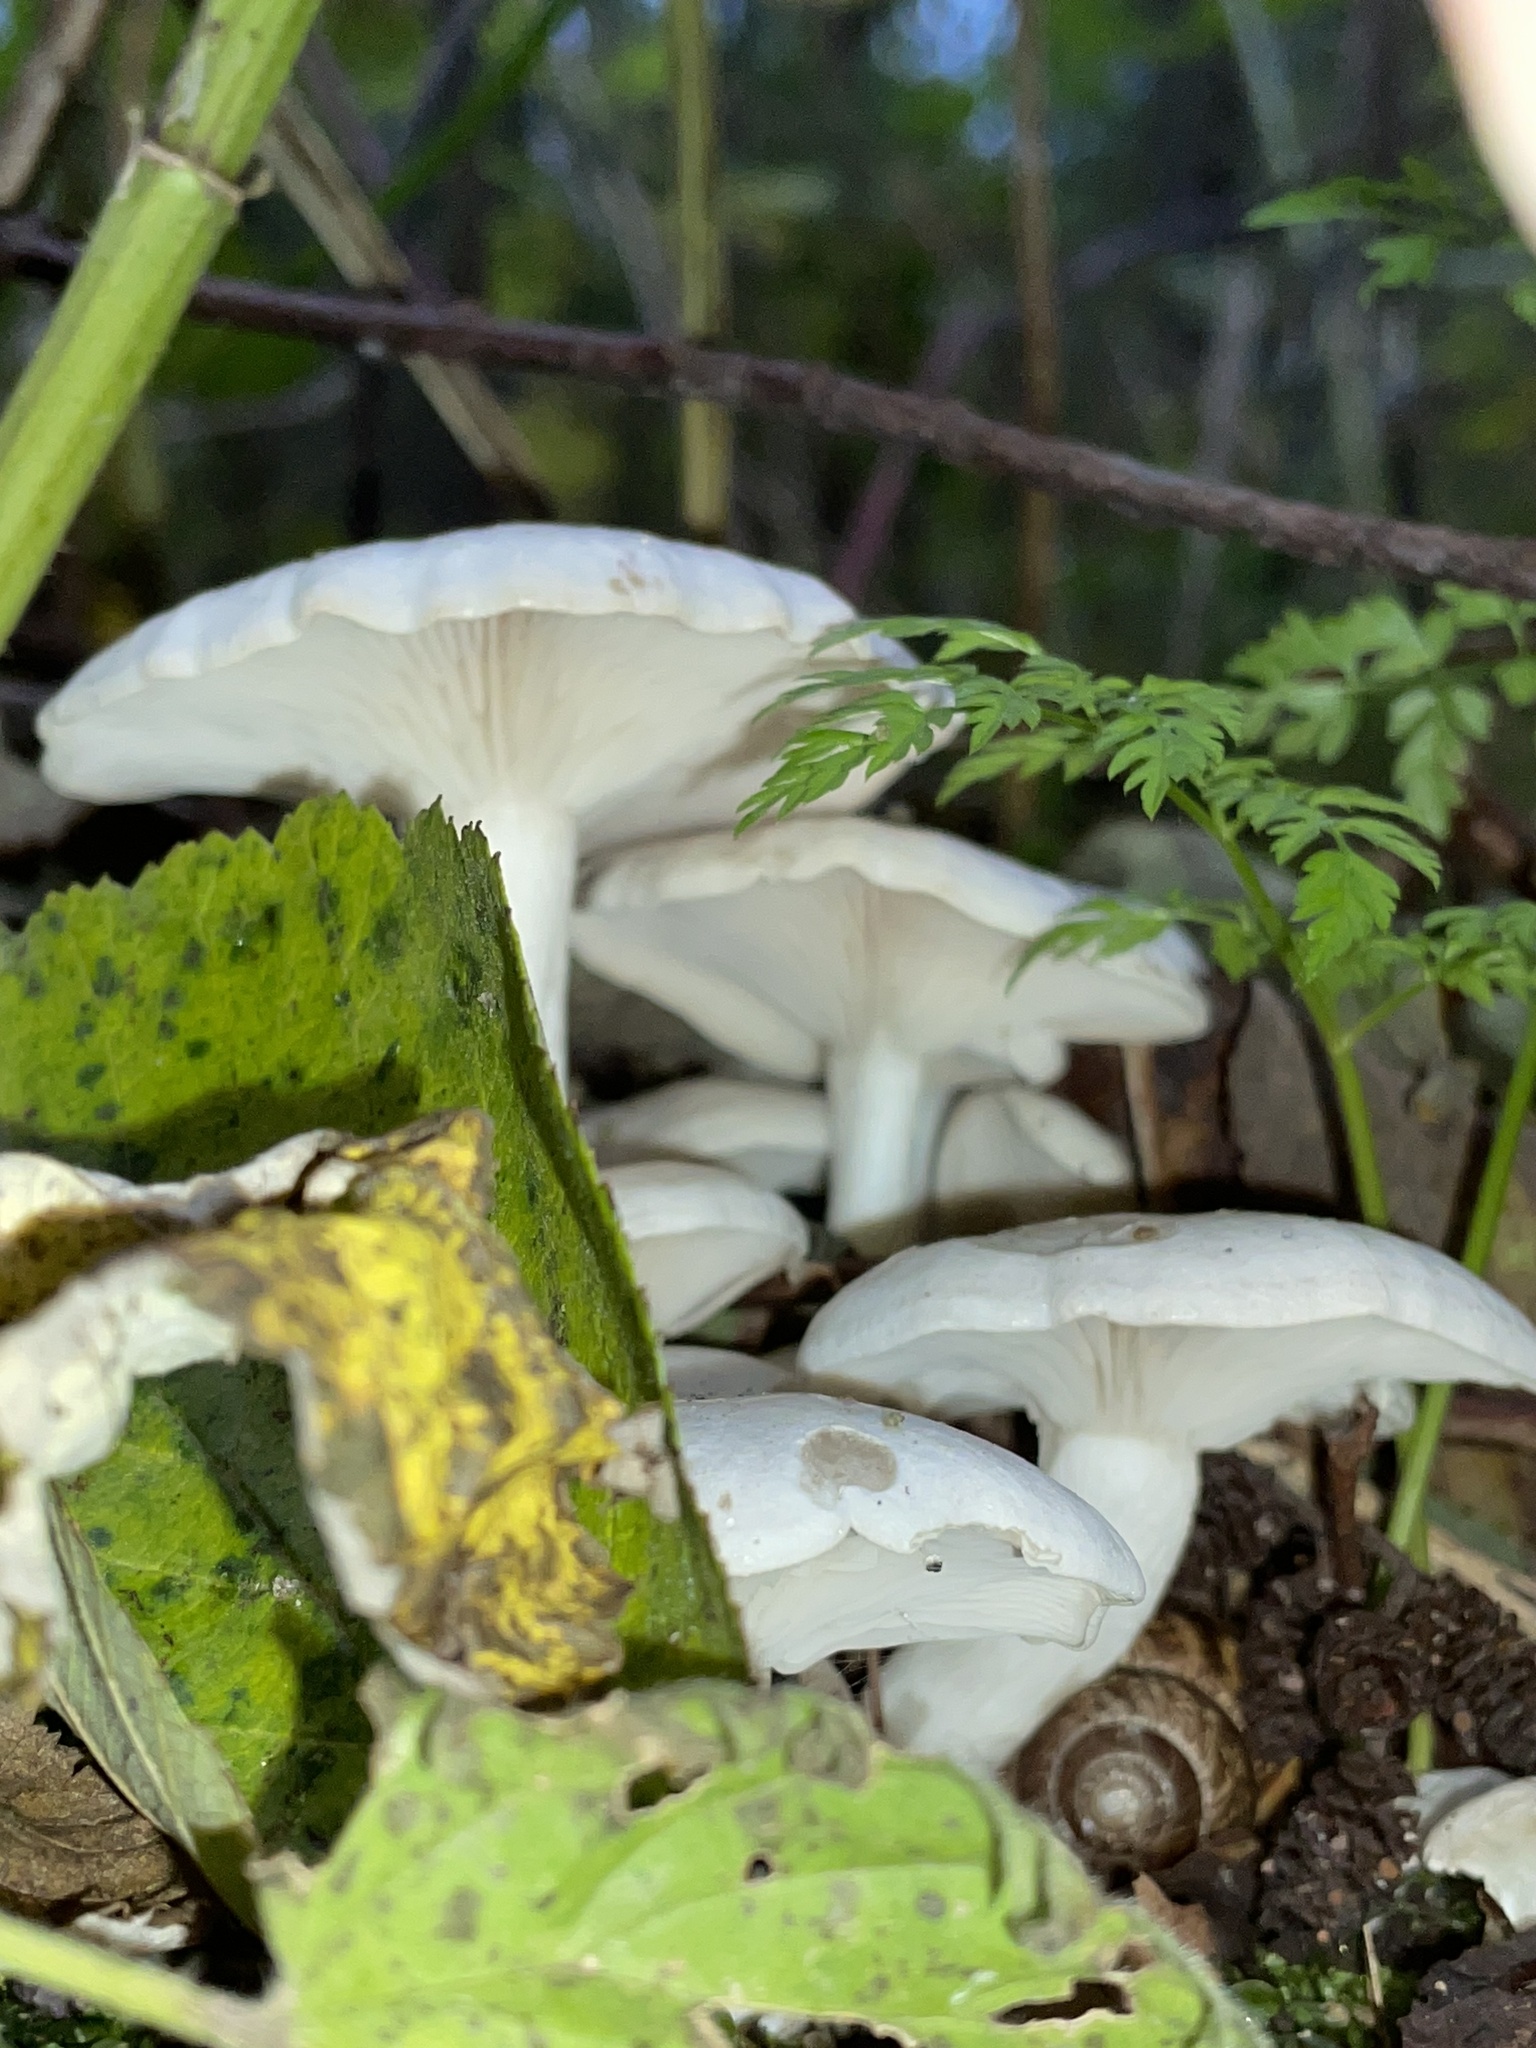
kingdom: Fungi
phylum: Basidiomycota
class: Agaricomycetes
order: Agaricales
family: Tricholomataceae
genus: Leucocybe
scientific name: Leucocybe connata
